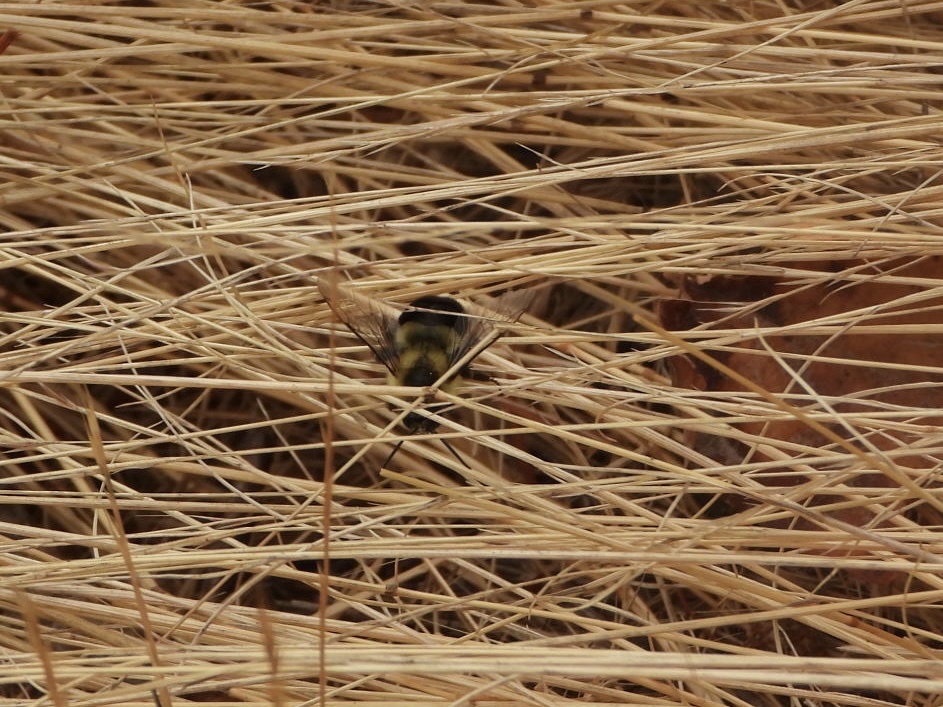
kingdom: Animalia
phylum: Arthropoda
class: Insecta
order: Hymenoptera
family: Apidae
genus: Bombus
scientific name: Bombus impatiens
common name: Common eastern bumble bee
